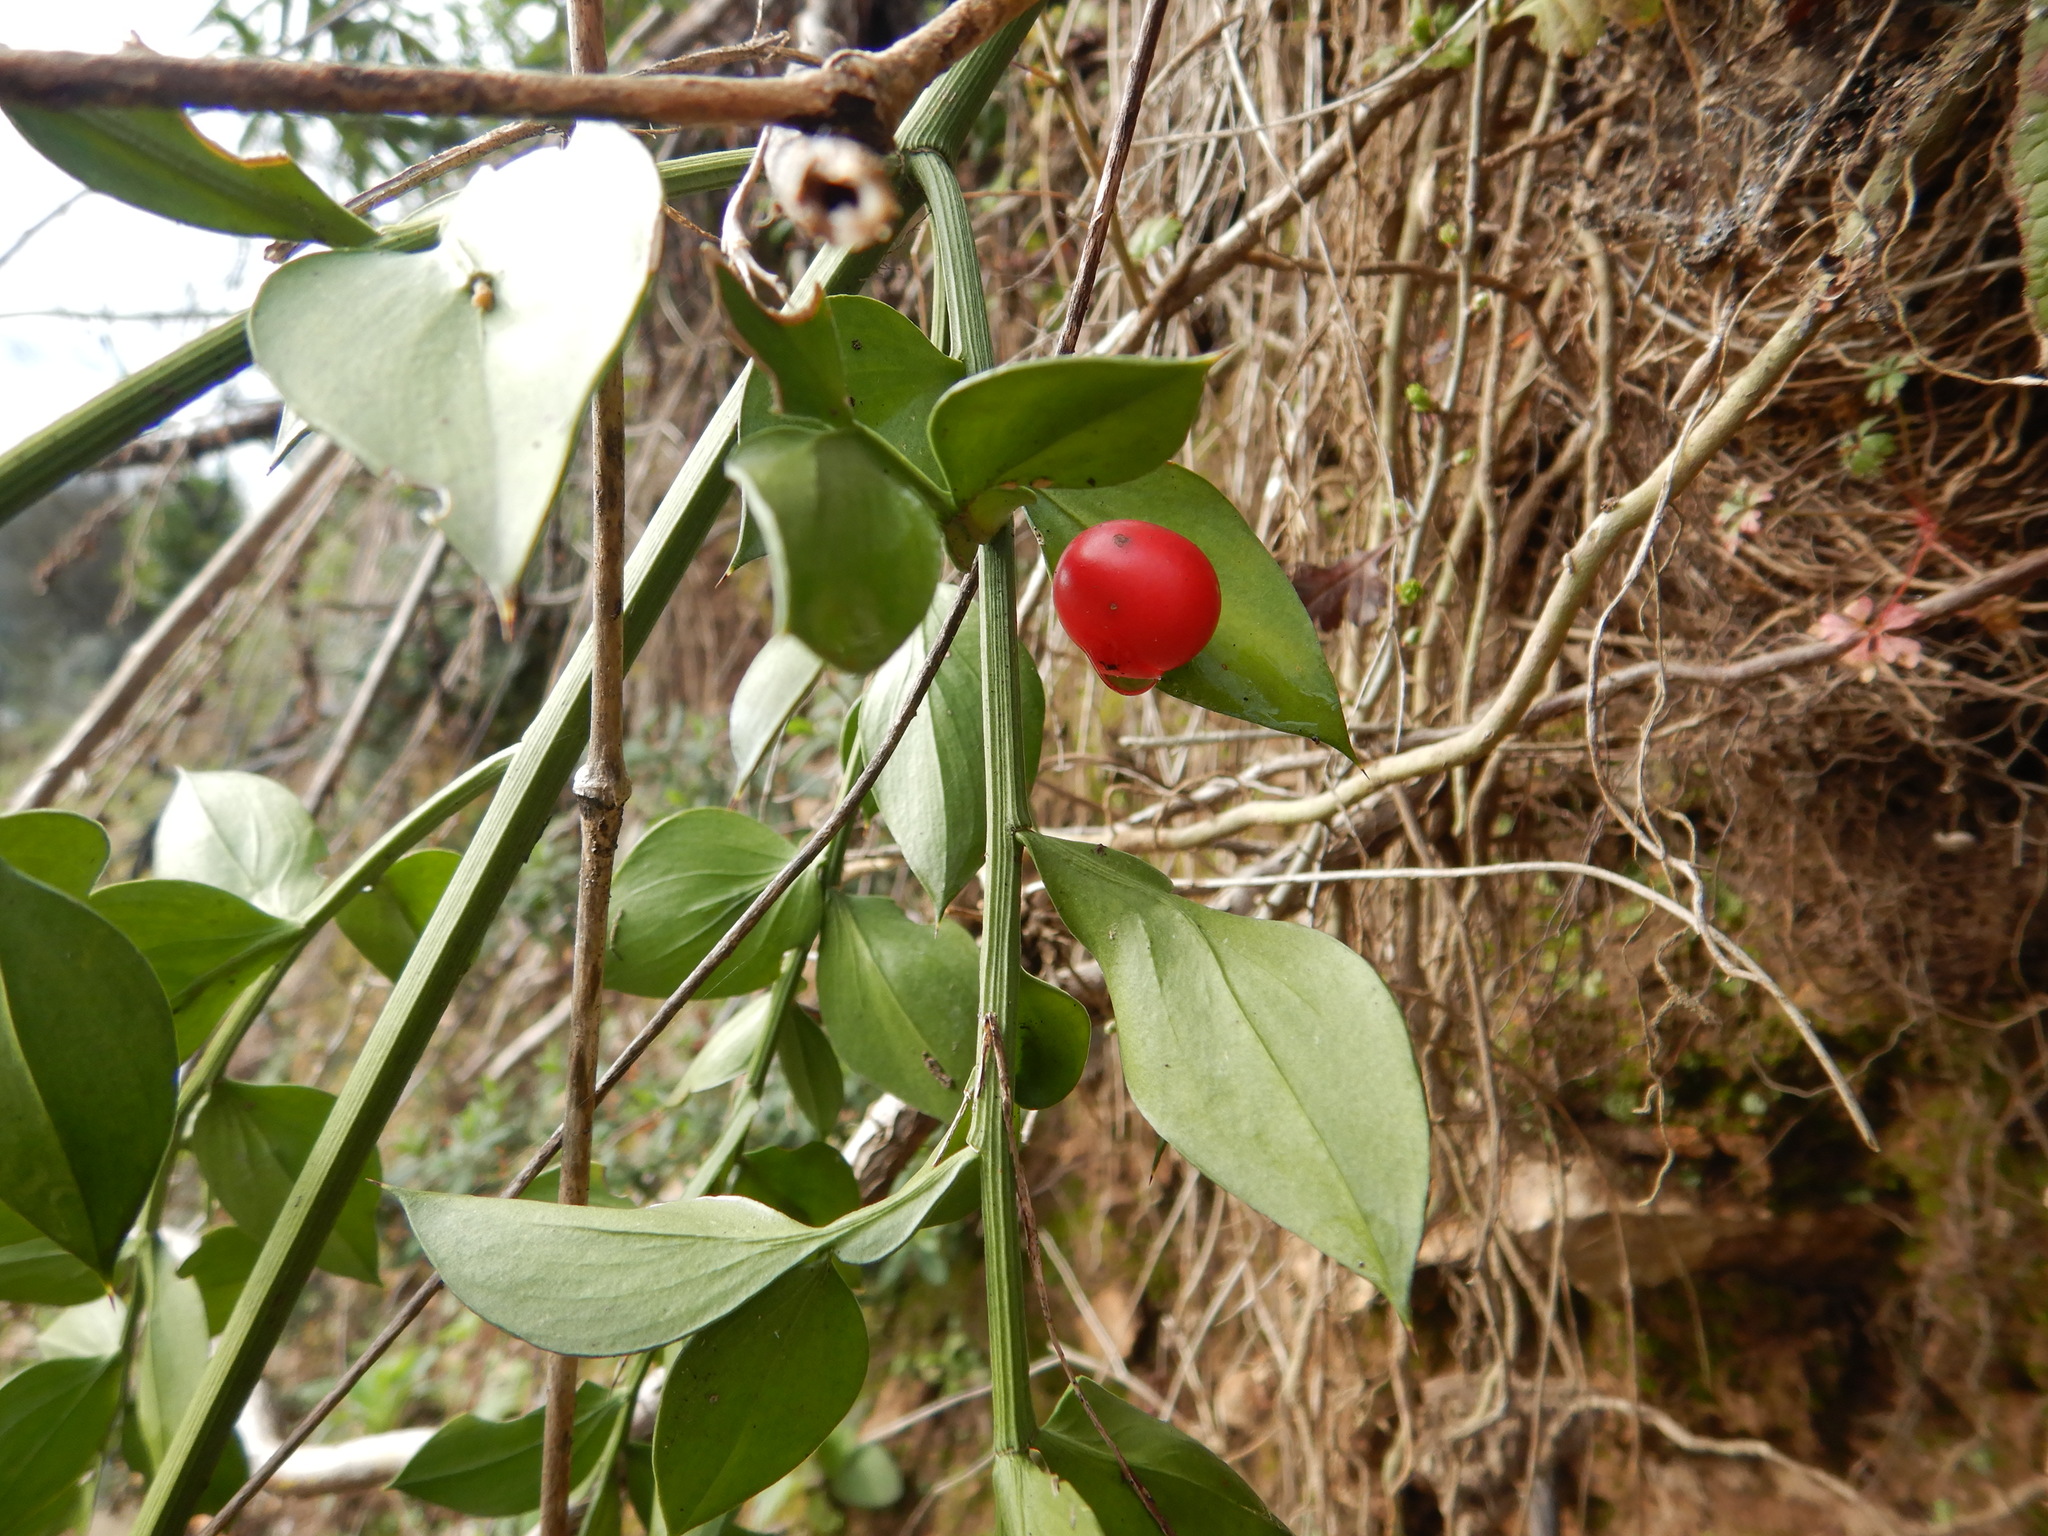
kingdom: Plantae
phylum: Tracheophyta
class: Liliopsida
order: Asparagales
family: Asparagaceae
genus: Ruscus
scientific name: Ruscus aculeatus
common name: Butcher's-broom
